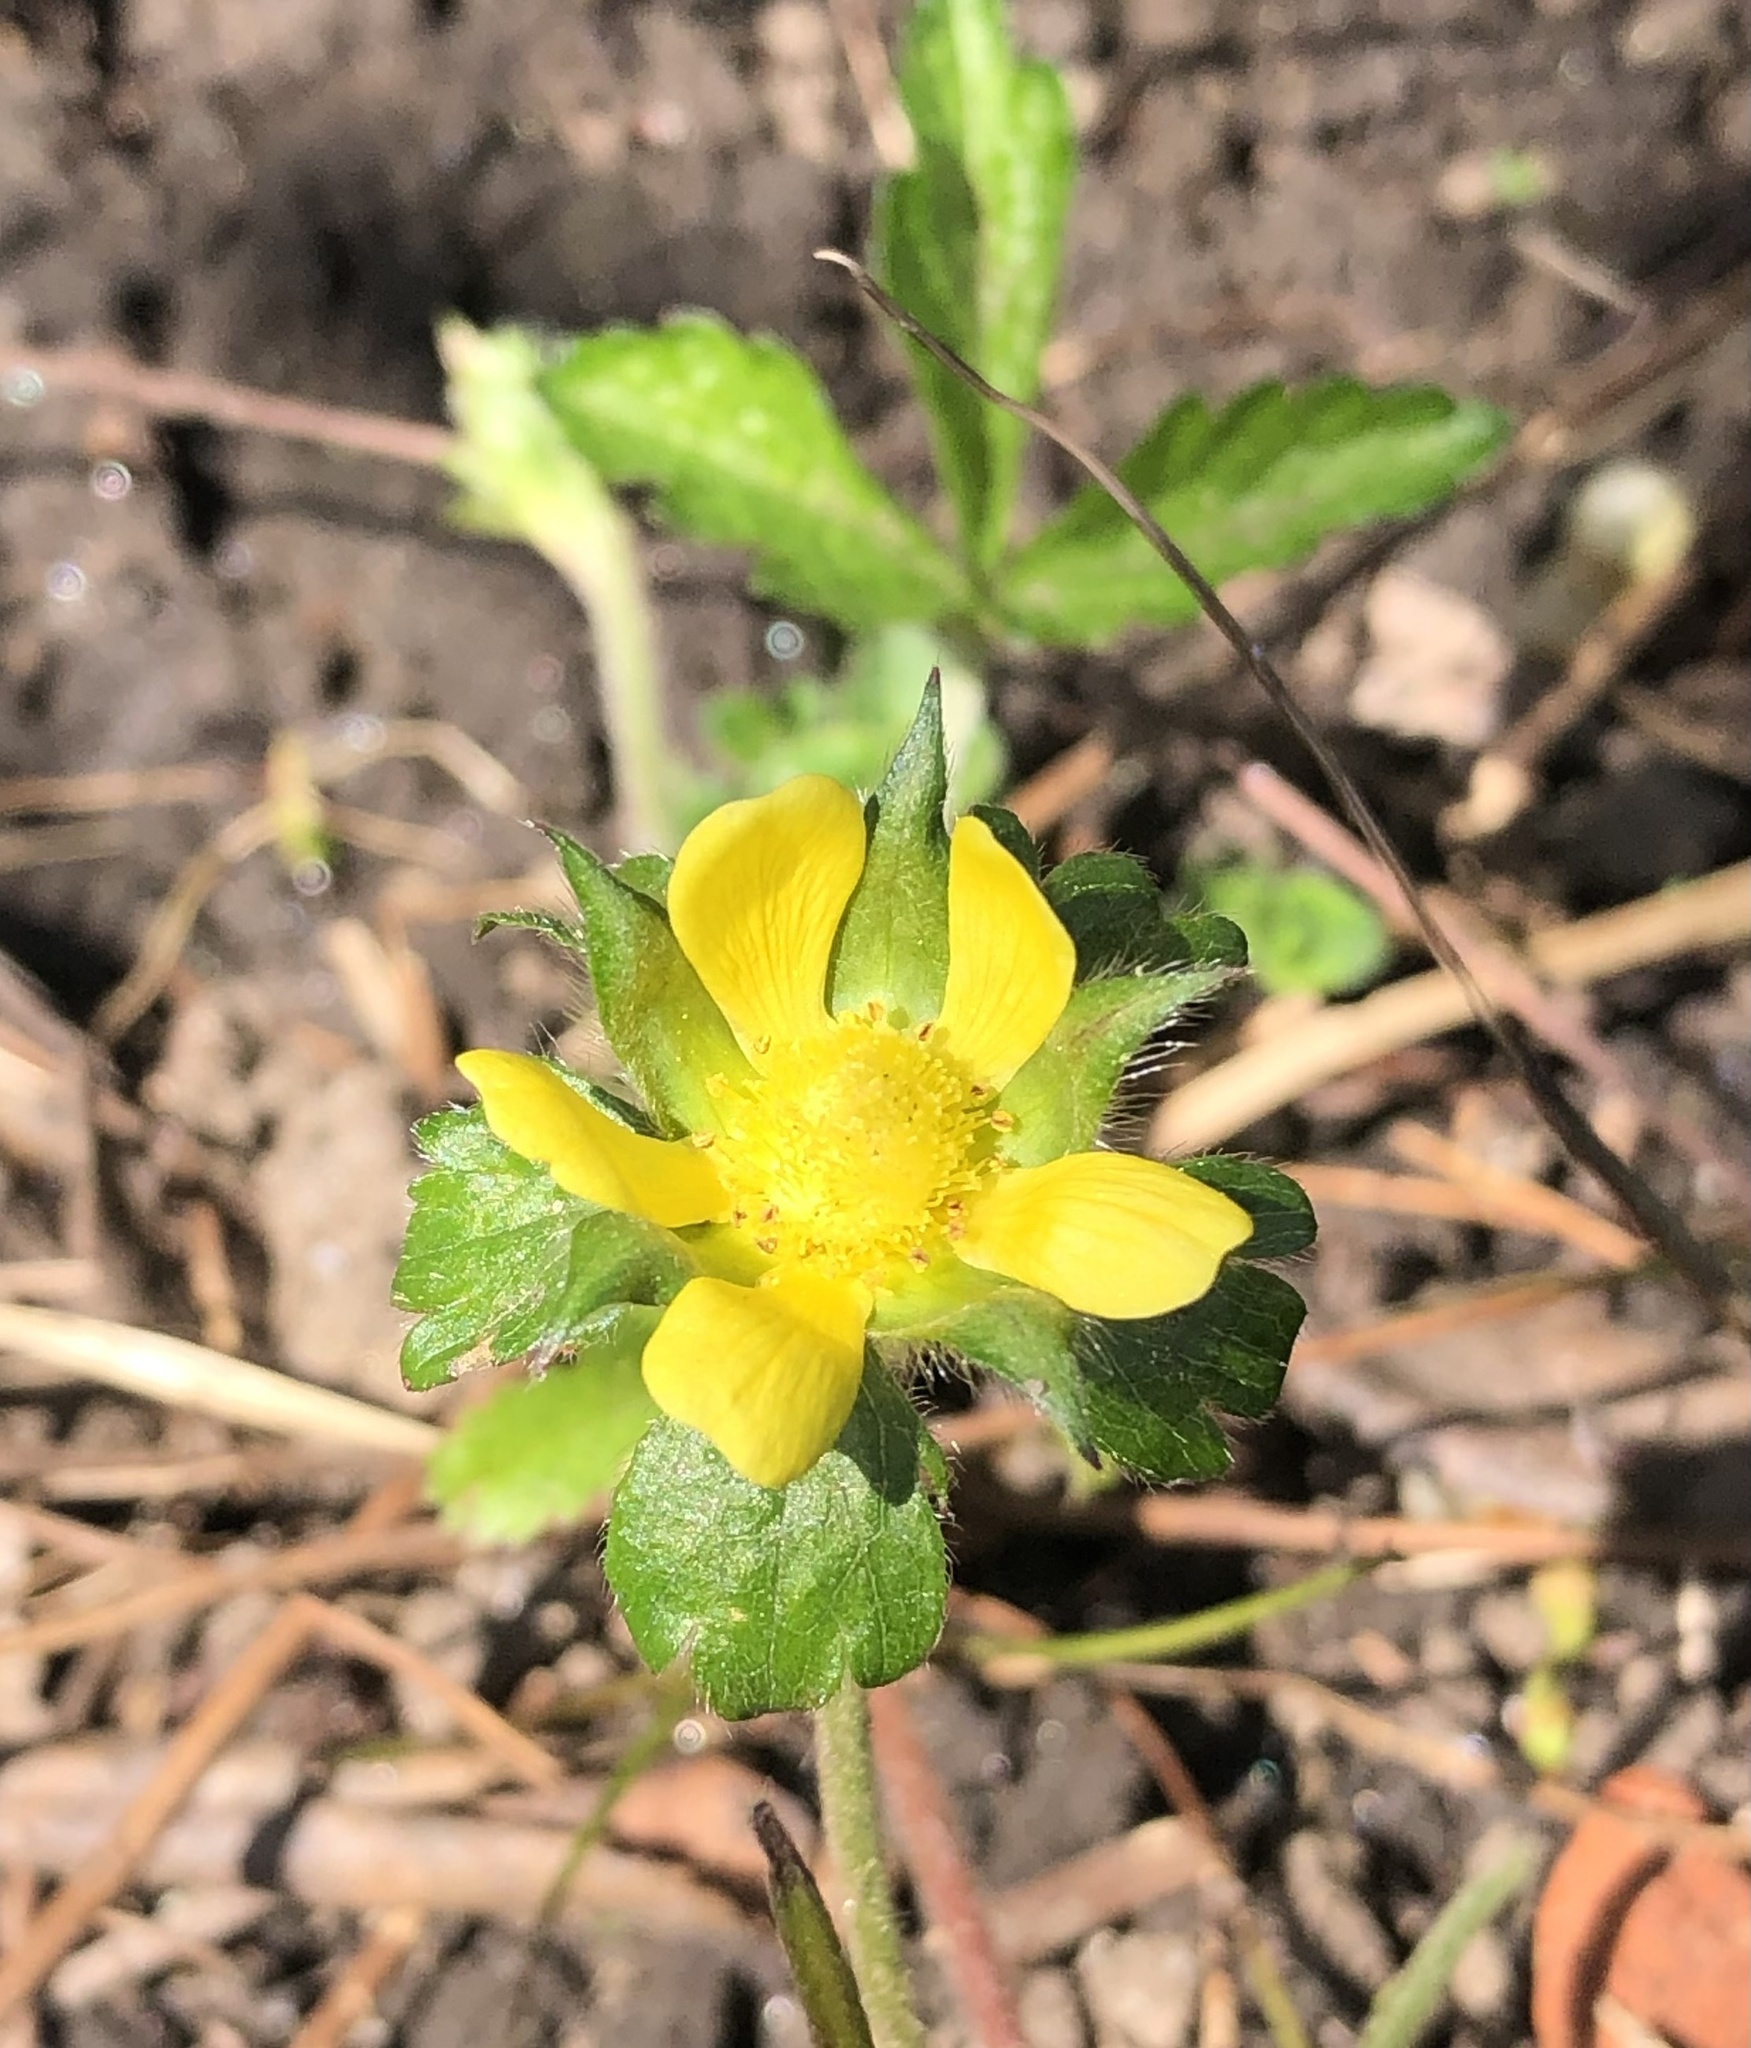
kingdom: Plantae
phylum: Tracheophyta
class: Magnoliopsida
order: Rosales
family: Rosaceae
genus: Potentilla
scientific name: Potentilla indica
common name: Yellow-flowered strawberry
